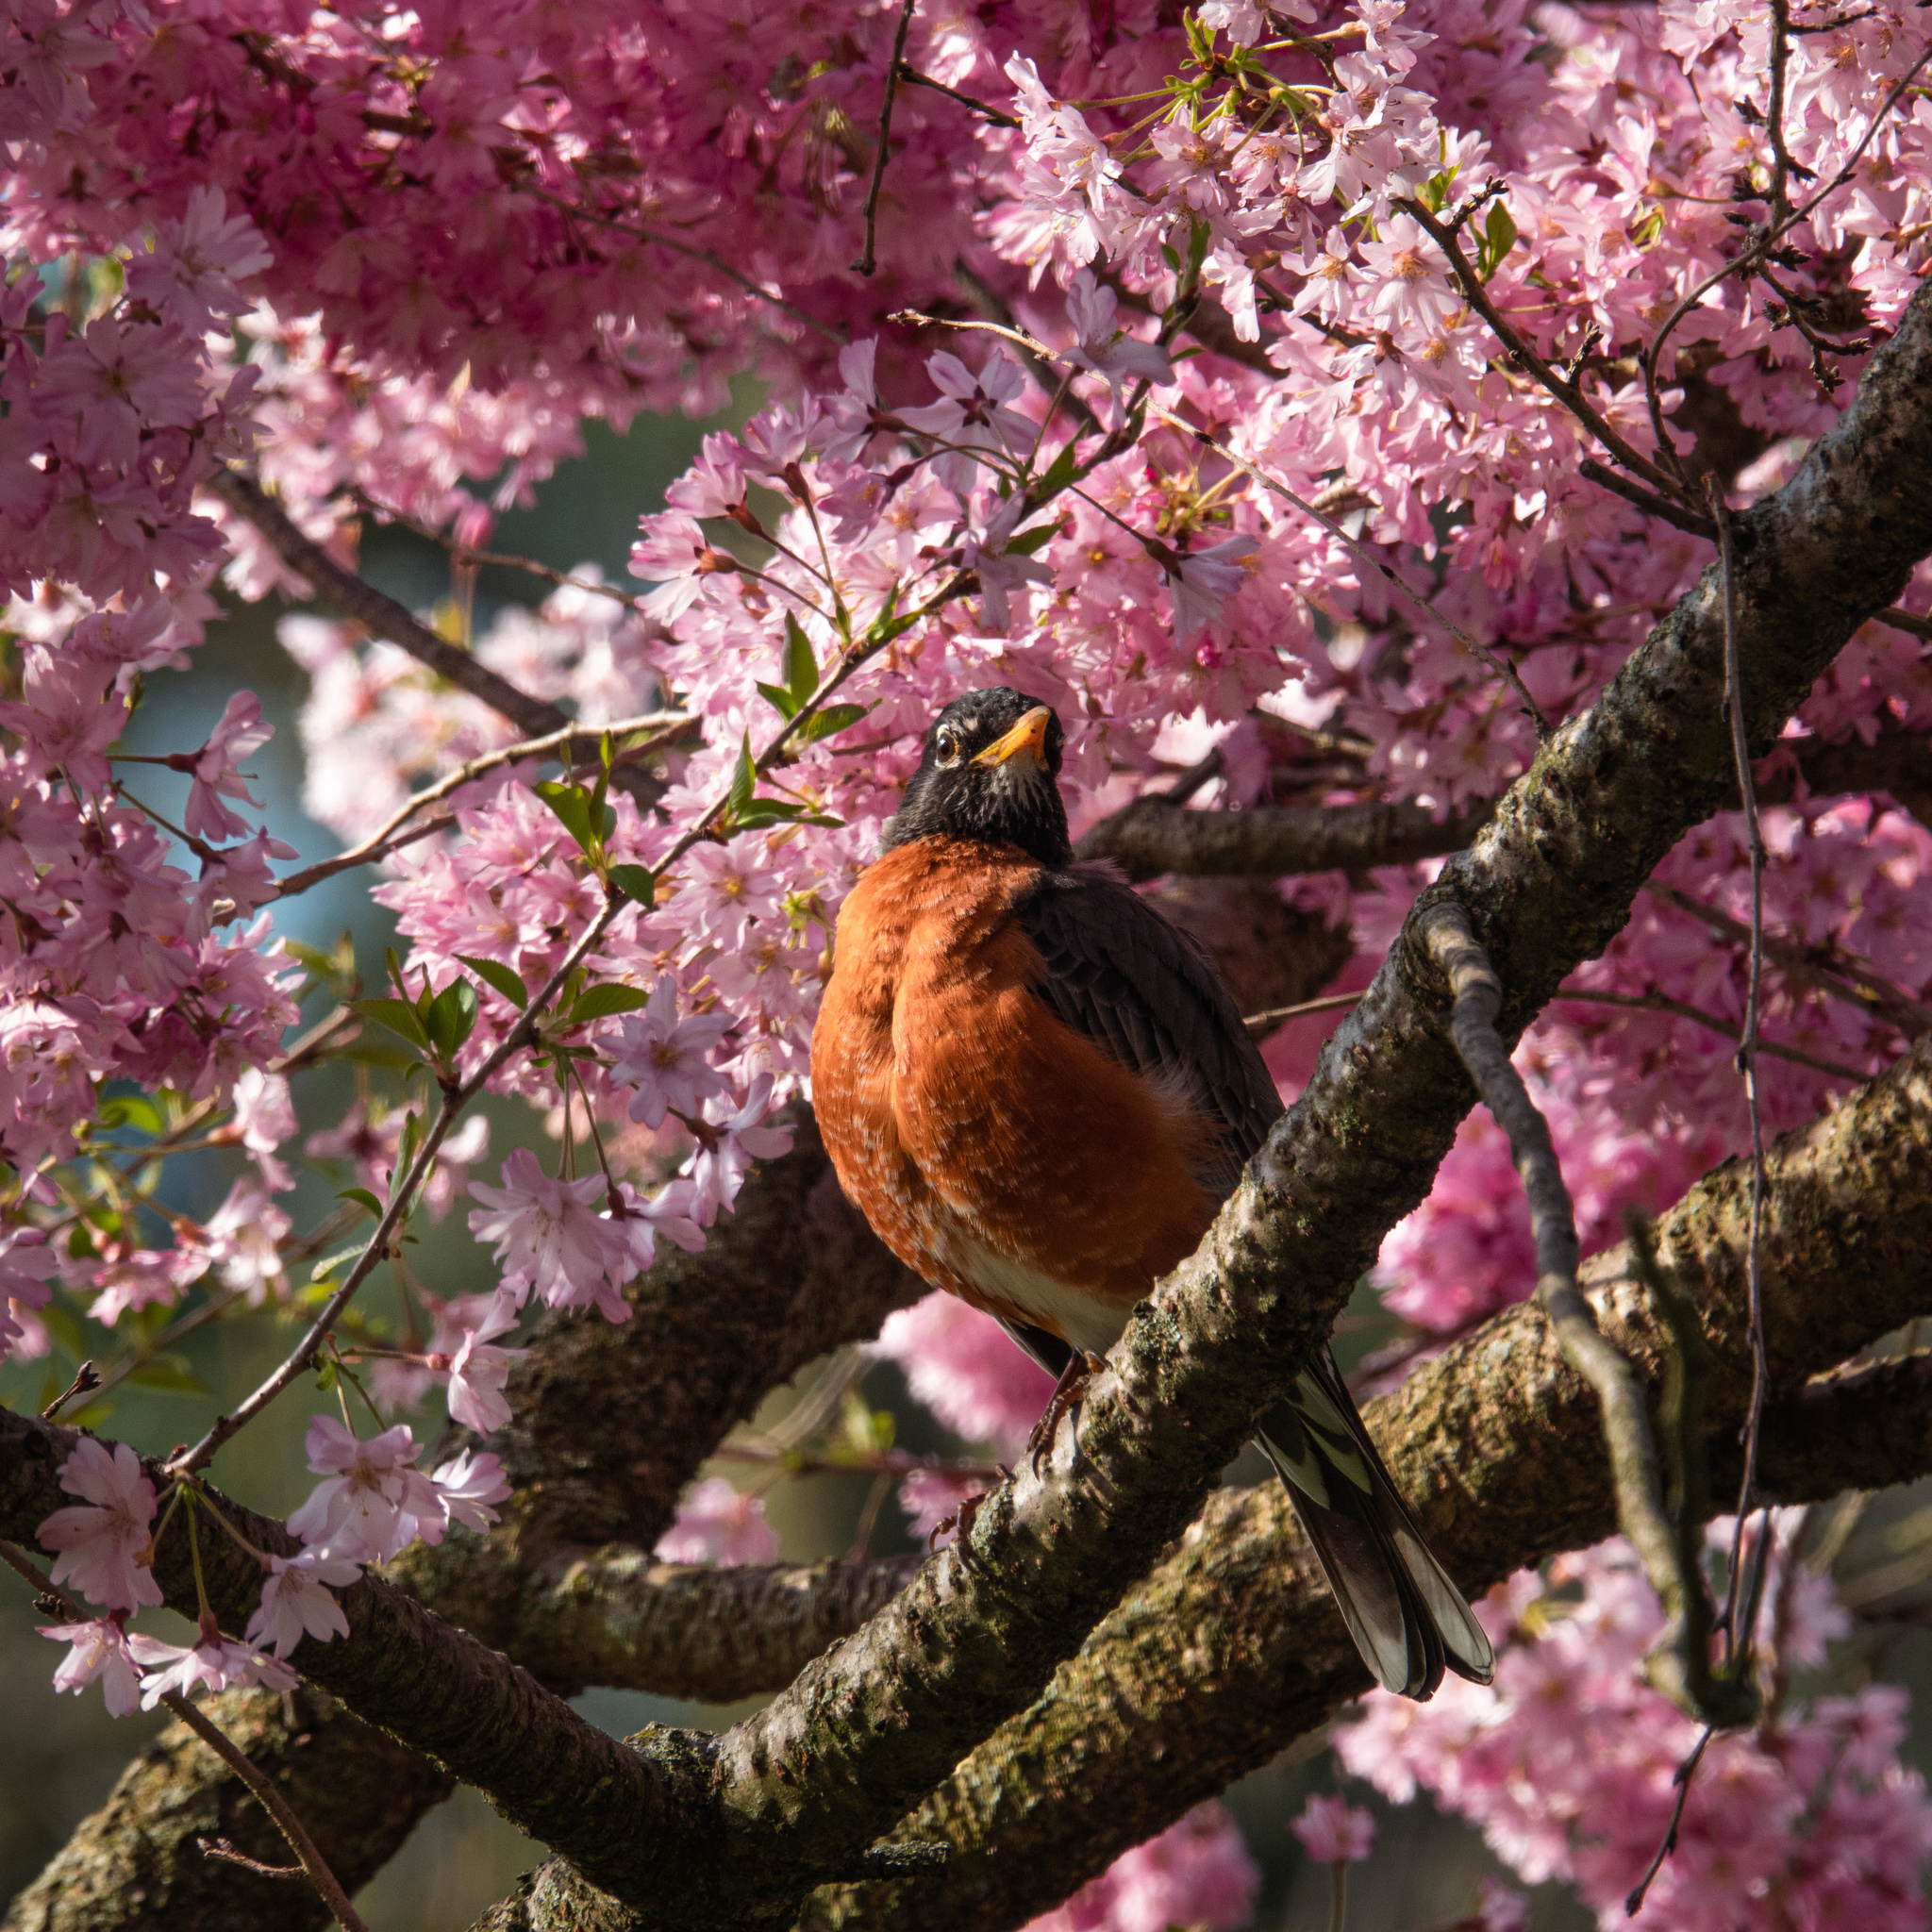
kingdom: Animalia
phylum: Chordata
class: Aves
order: Passeriformes
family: Turdidae
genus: Turdus
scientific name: Turdus migratorius
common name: American robin
